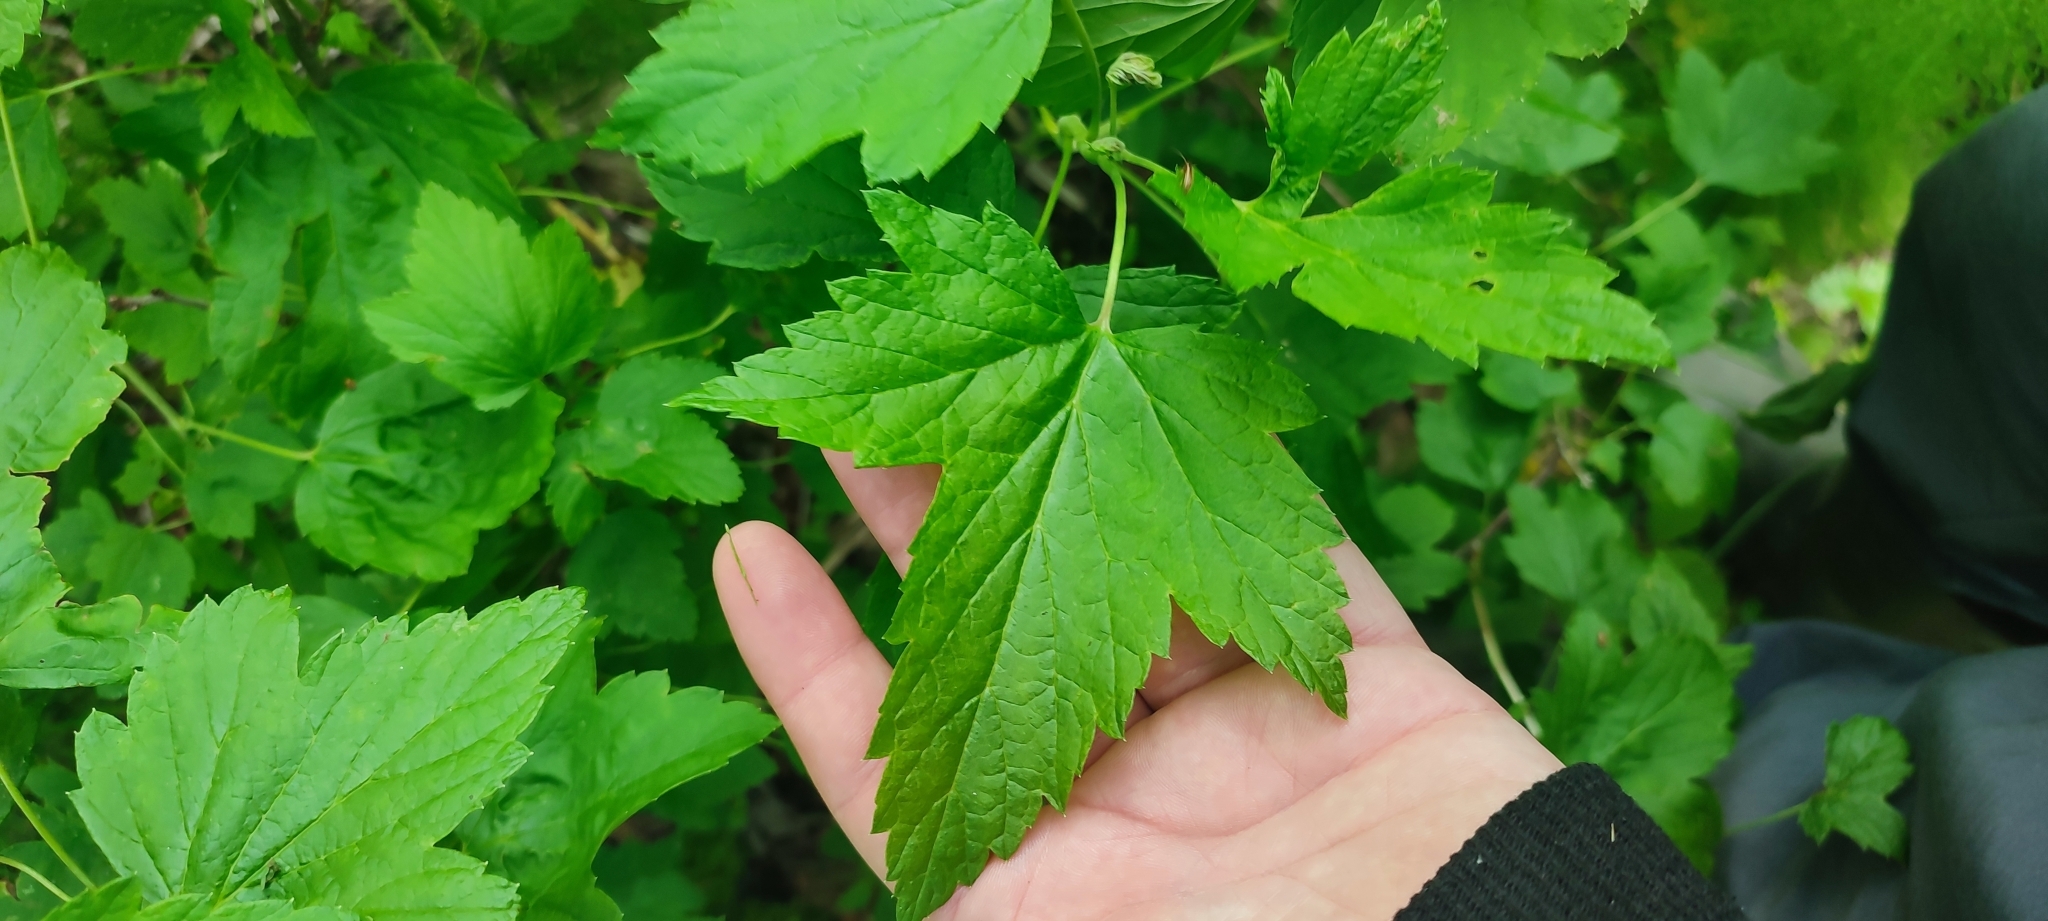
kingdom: Plantae
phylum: Tracheophyta
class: Magnoliopsida
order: Saxifragales
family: Grossulariaceae
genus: Ribes
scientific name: Ribes nigrum
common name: Black currant
